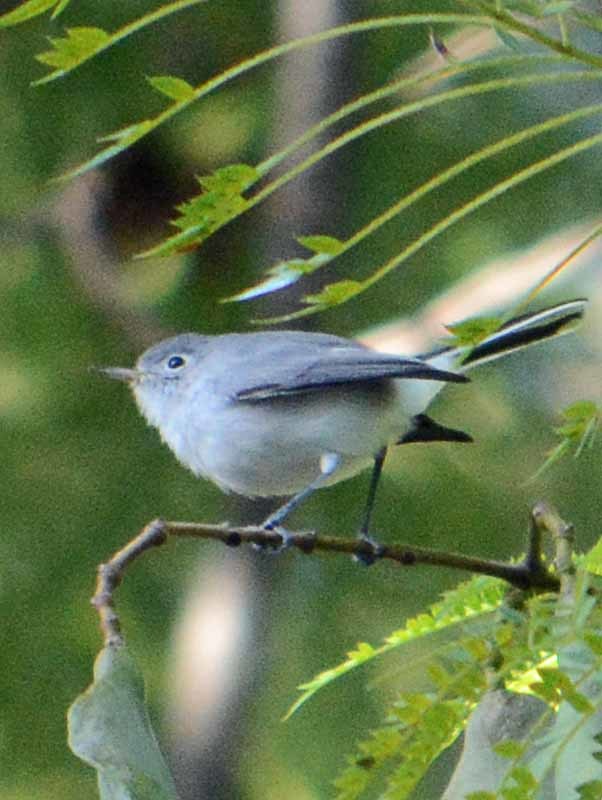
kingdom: Animalia
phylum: Chordata
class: Aves
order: Passeriformes
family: Polioptilidae
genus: Polioptila
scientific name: Polioptila caerulea
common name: Blue-gray gnatcatcher
